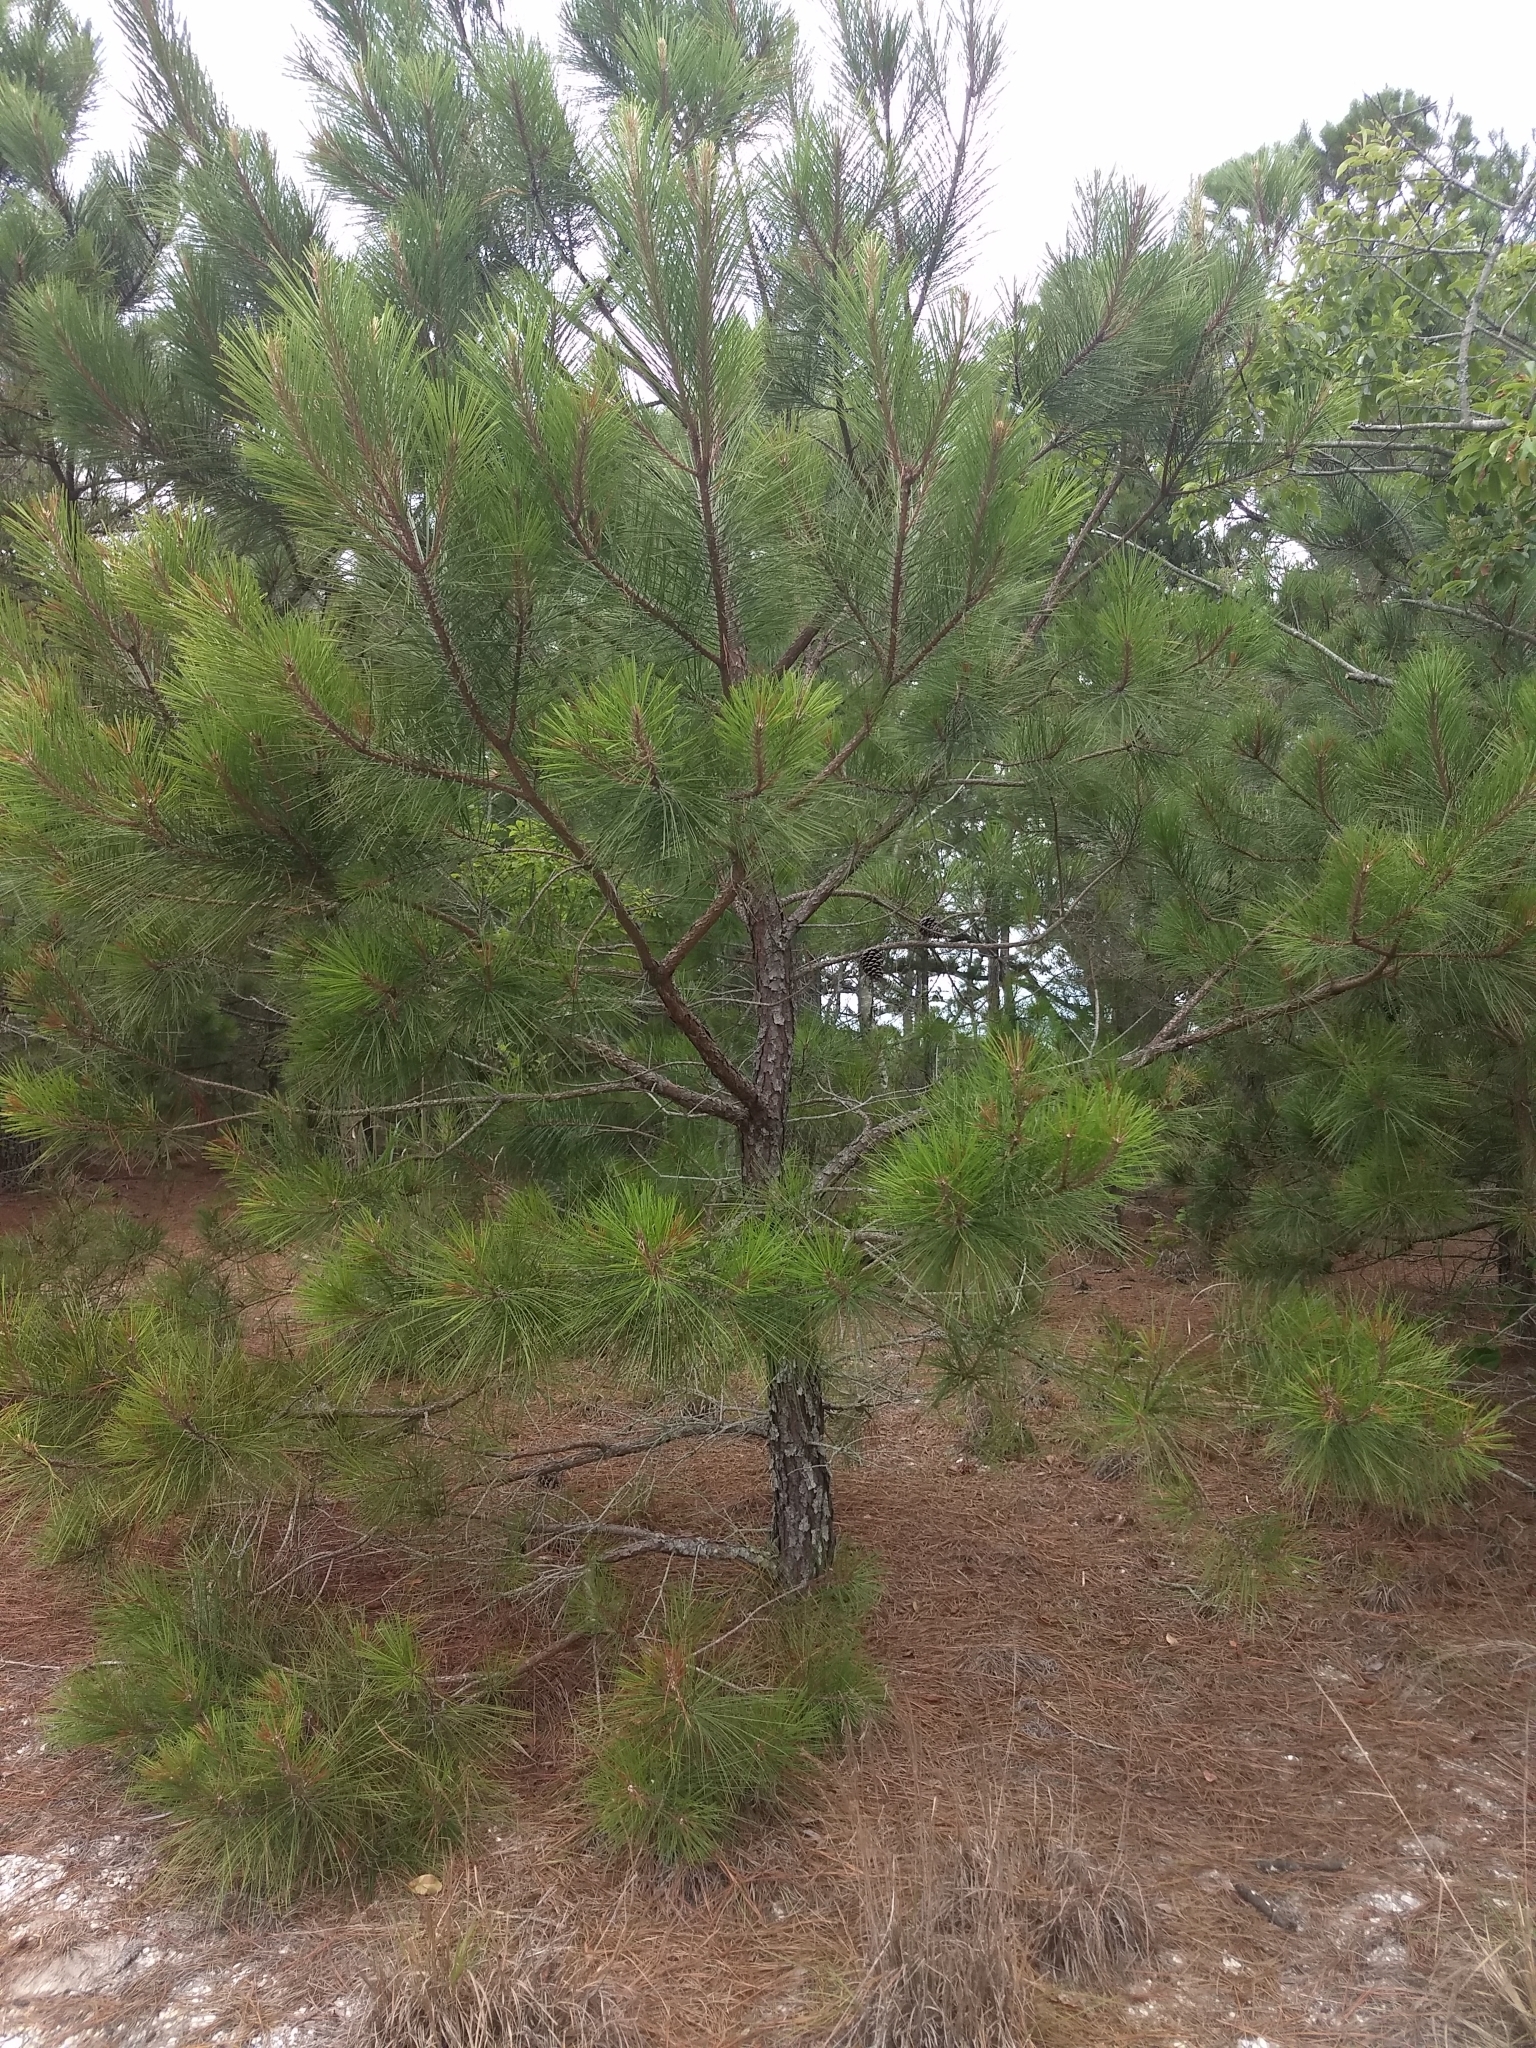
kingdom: Plantae
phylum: Tracheophyta
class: Pinopsida
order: Pinales
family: Pinaceae
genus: Pinus
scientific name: Pinus taeda
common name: Loblolly pine
